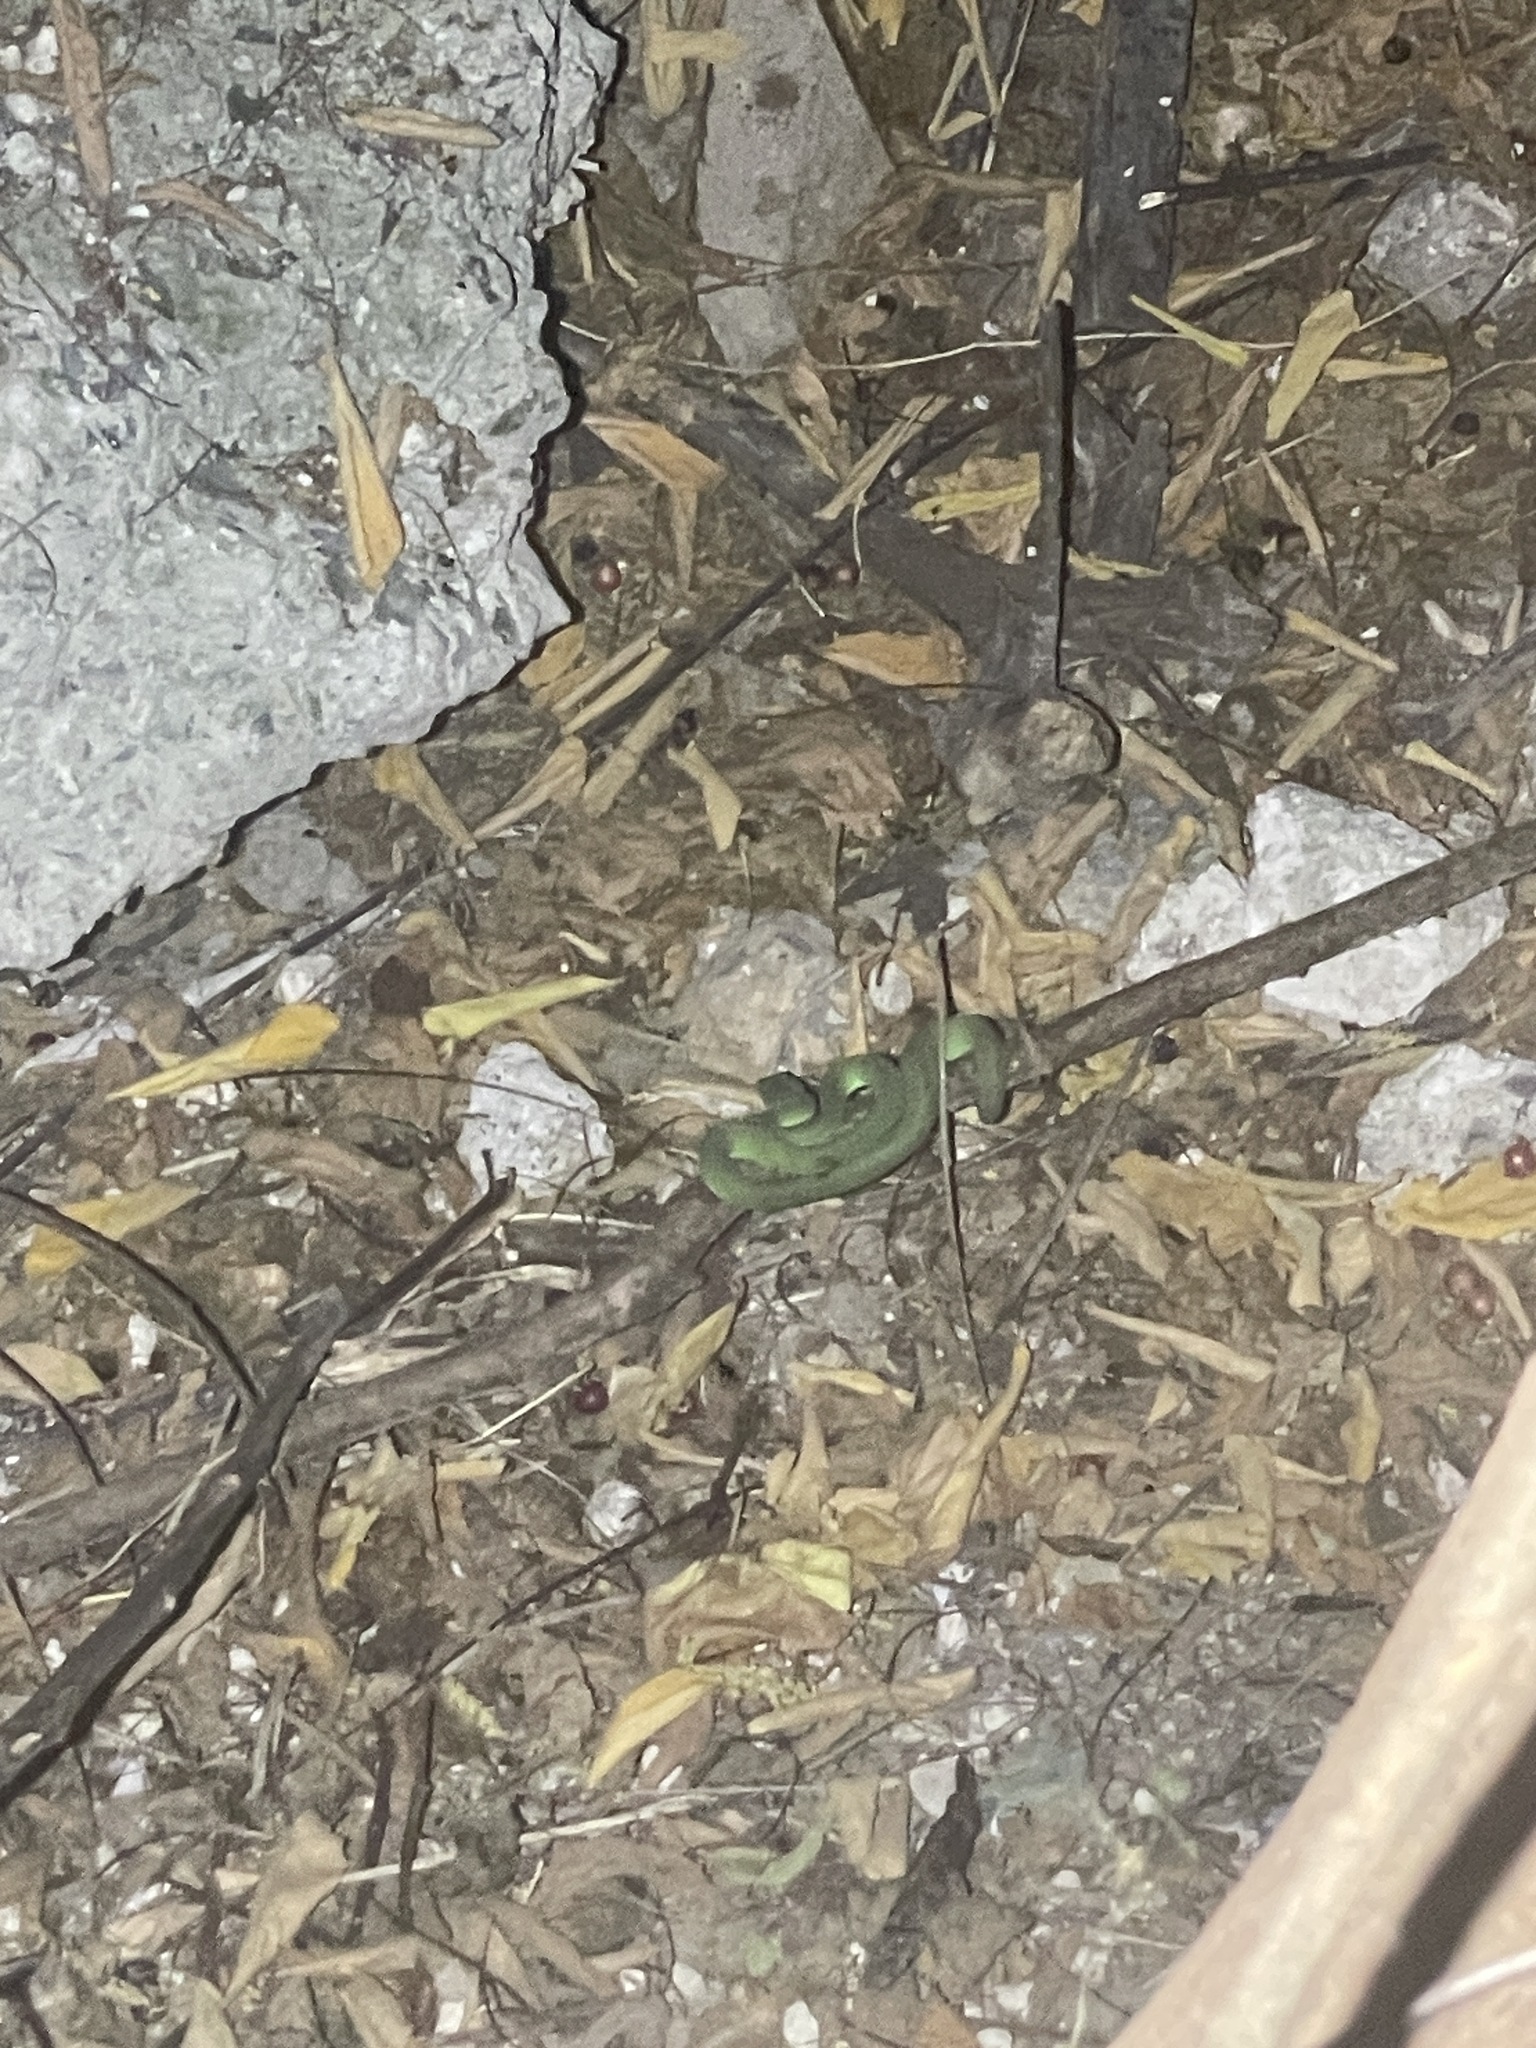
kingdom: Animalia
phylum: Chordata
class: Squamata
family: Viperidae
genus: Trimeresurus
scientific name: Trimeresurus macrops
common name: Kramer's pit viper
